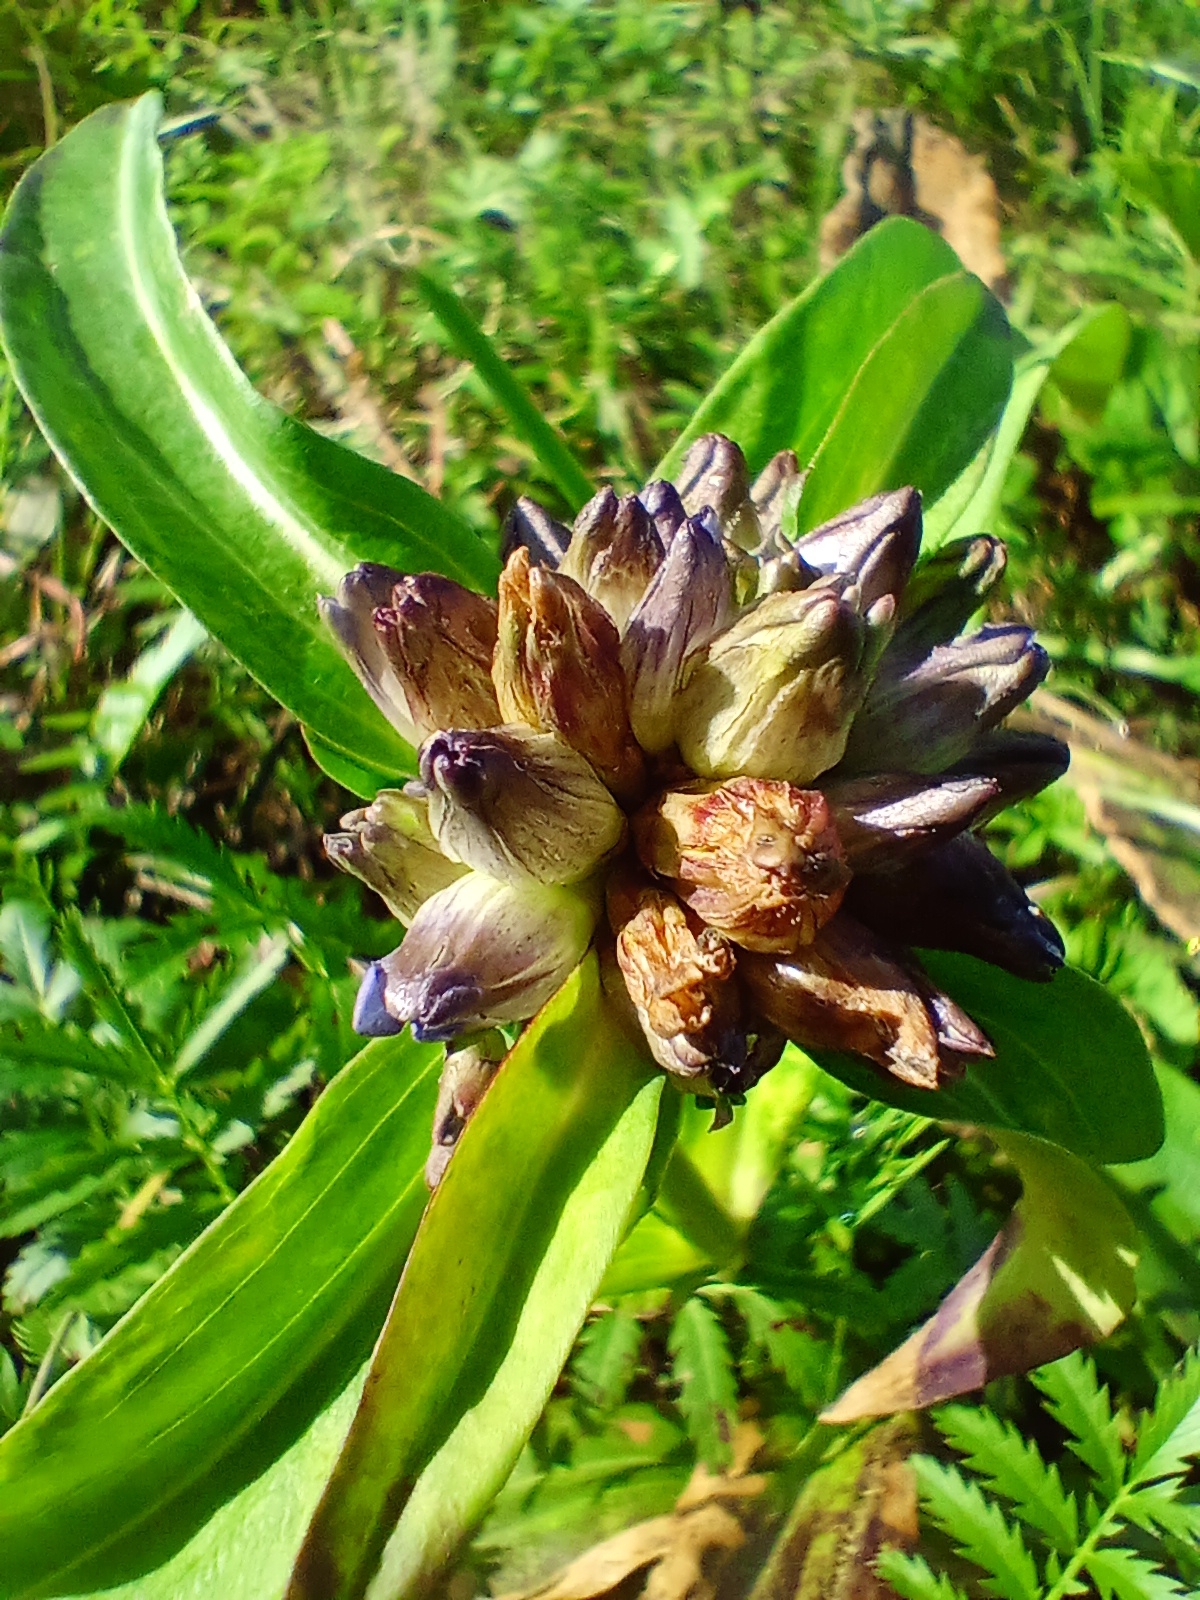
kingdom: Plantae
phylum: Tracheophyta
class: Magnoliopsida
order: Gentianales
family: Gentianaceae
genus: Gentiana
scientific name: Gentiana macrophylla
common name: Large-leaf gentian
